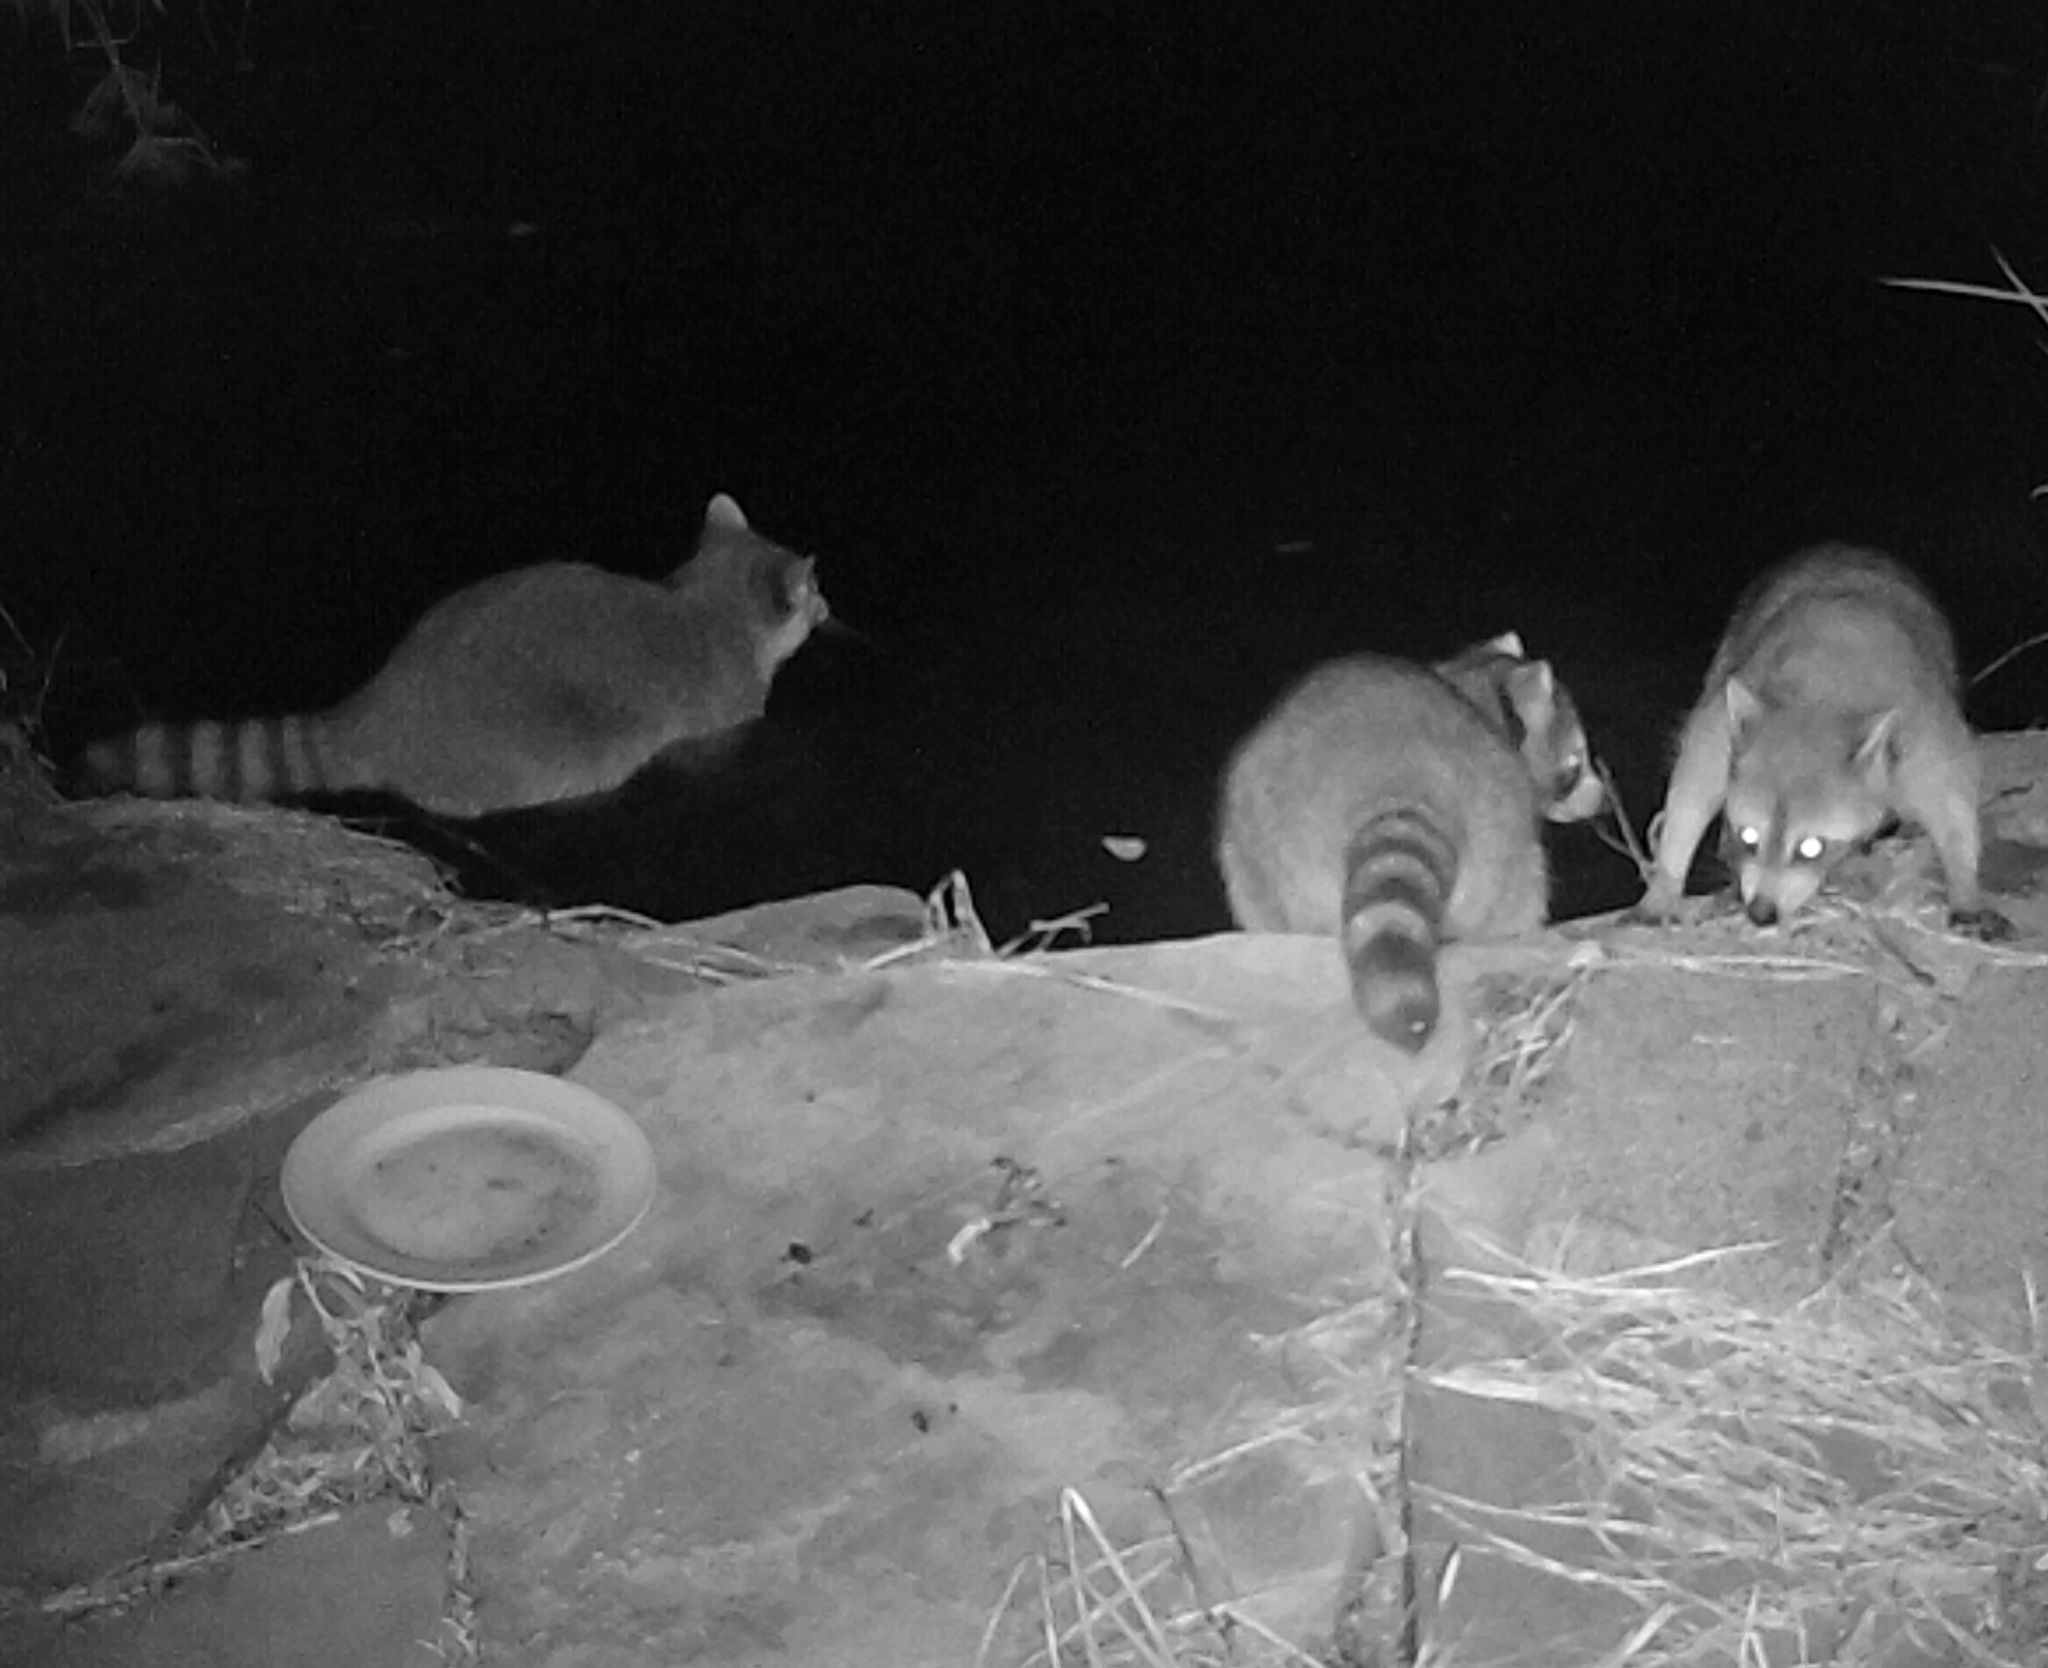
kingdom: Animalia
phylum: Chordata
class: Mammalia
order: Carnivora
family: Procyonidae
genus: Procyon
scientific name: Procyon lotor
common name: Raccoon
